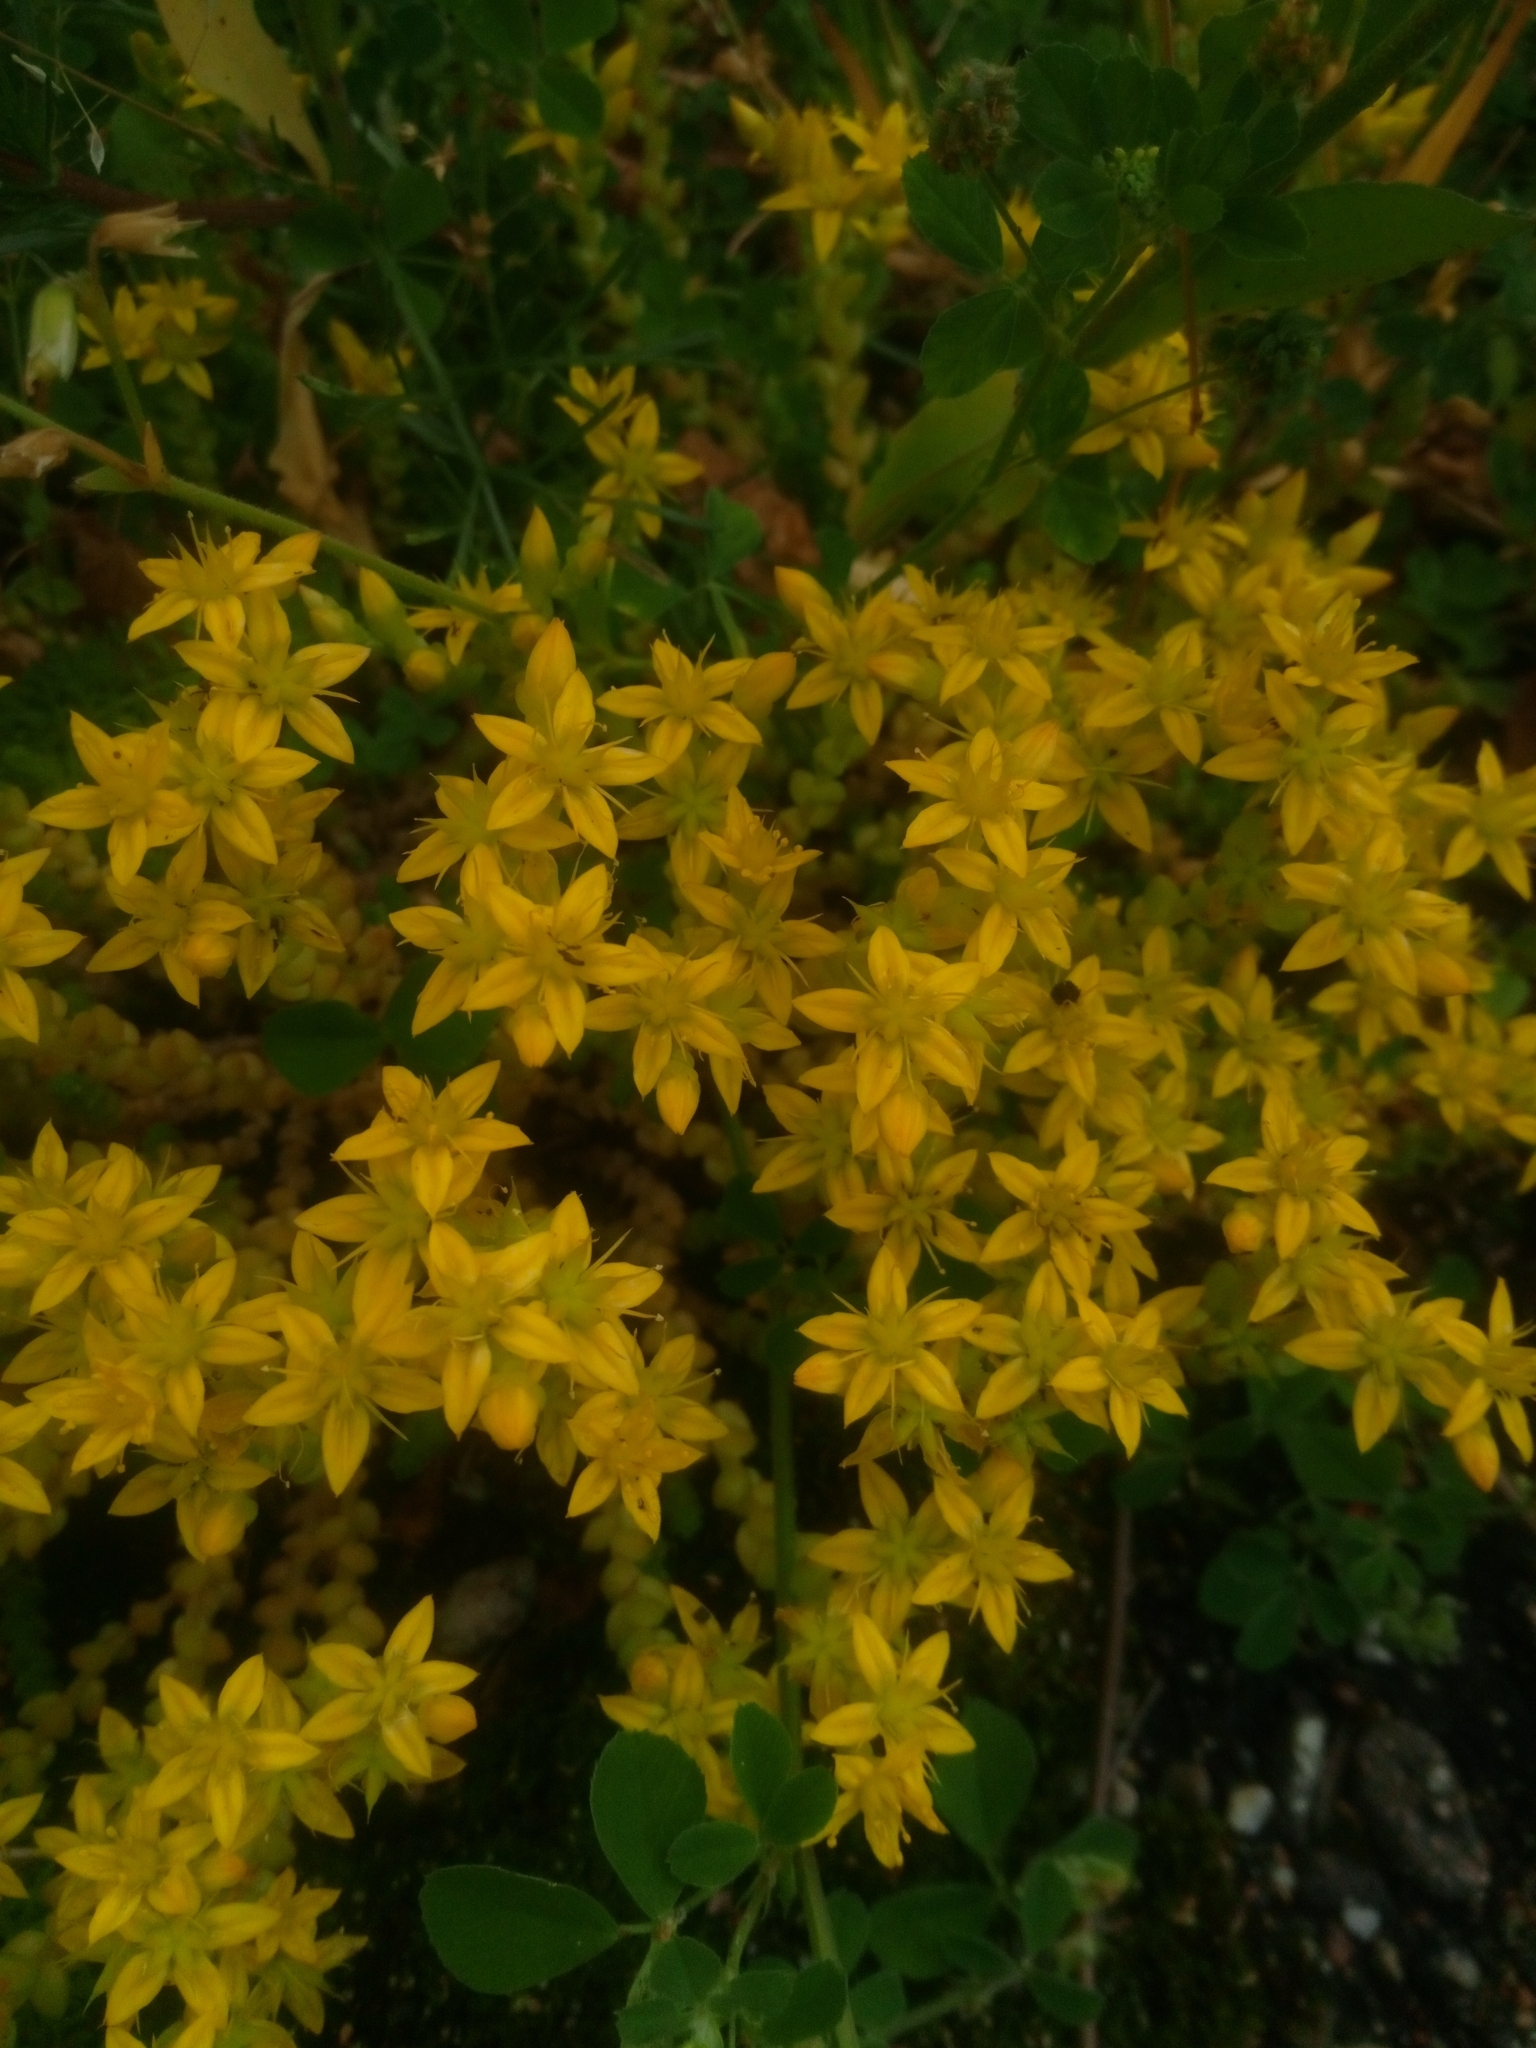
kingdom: Plantae
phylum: Tracheophyta
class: Magnoliopsida
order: Saxifragales
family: Crassulaceae
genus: Sedum
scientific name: Sedum acre
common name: Biting stonecrop
